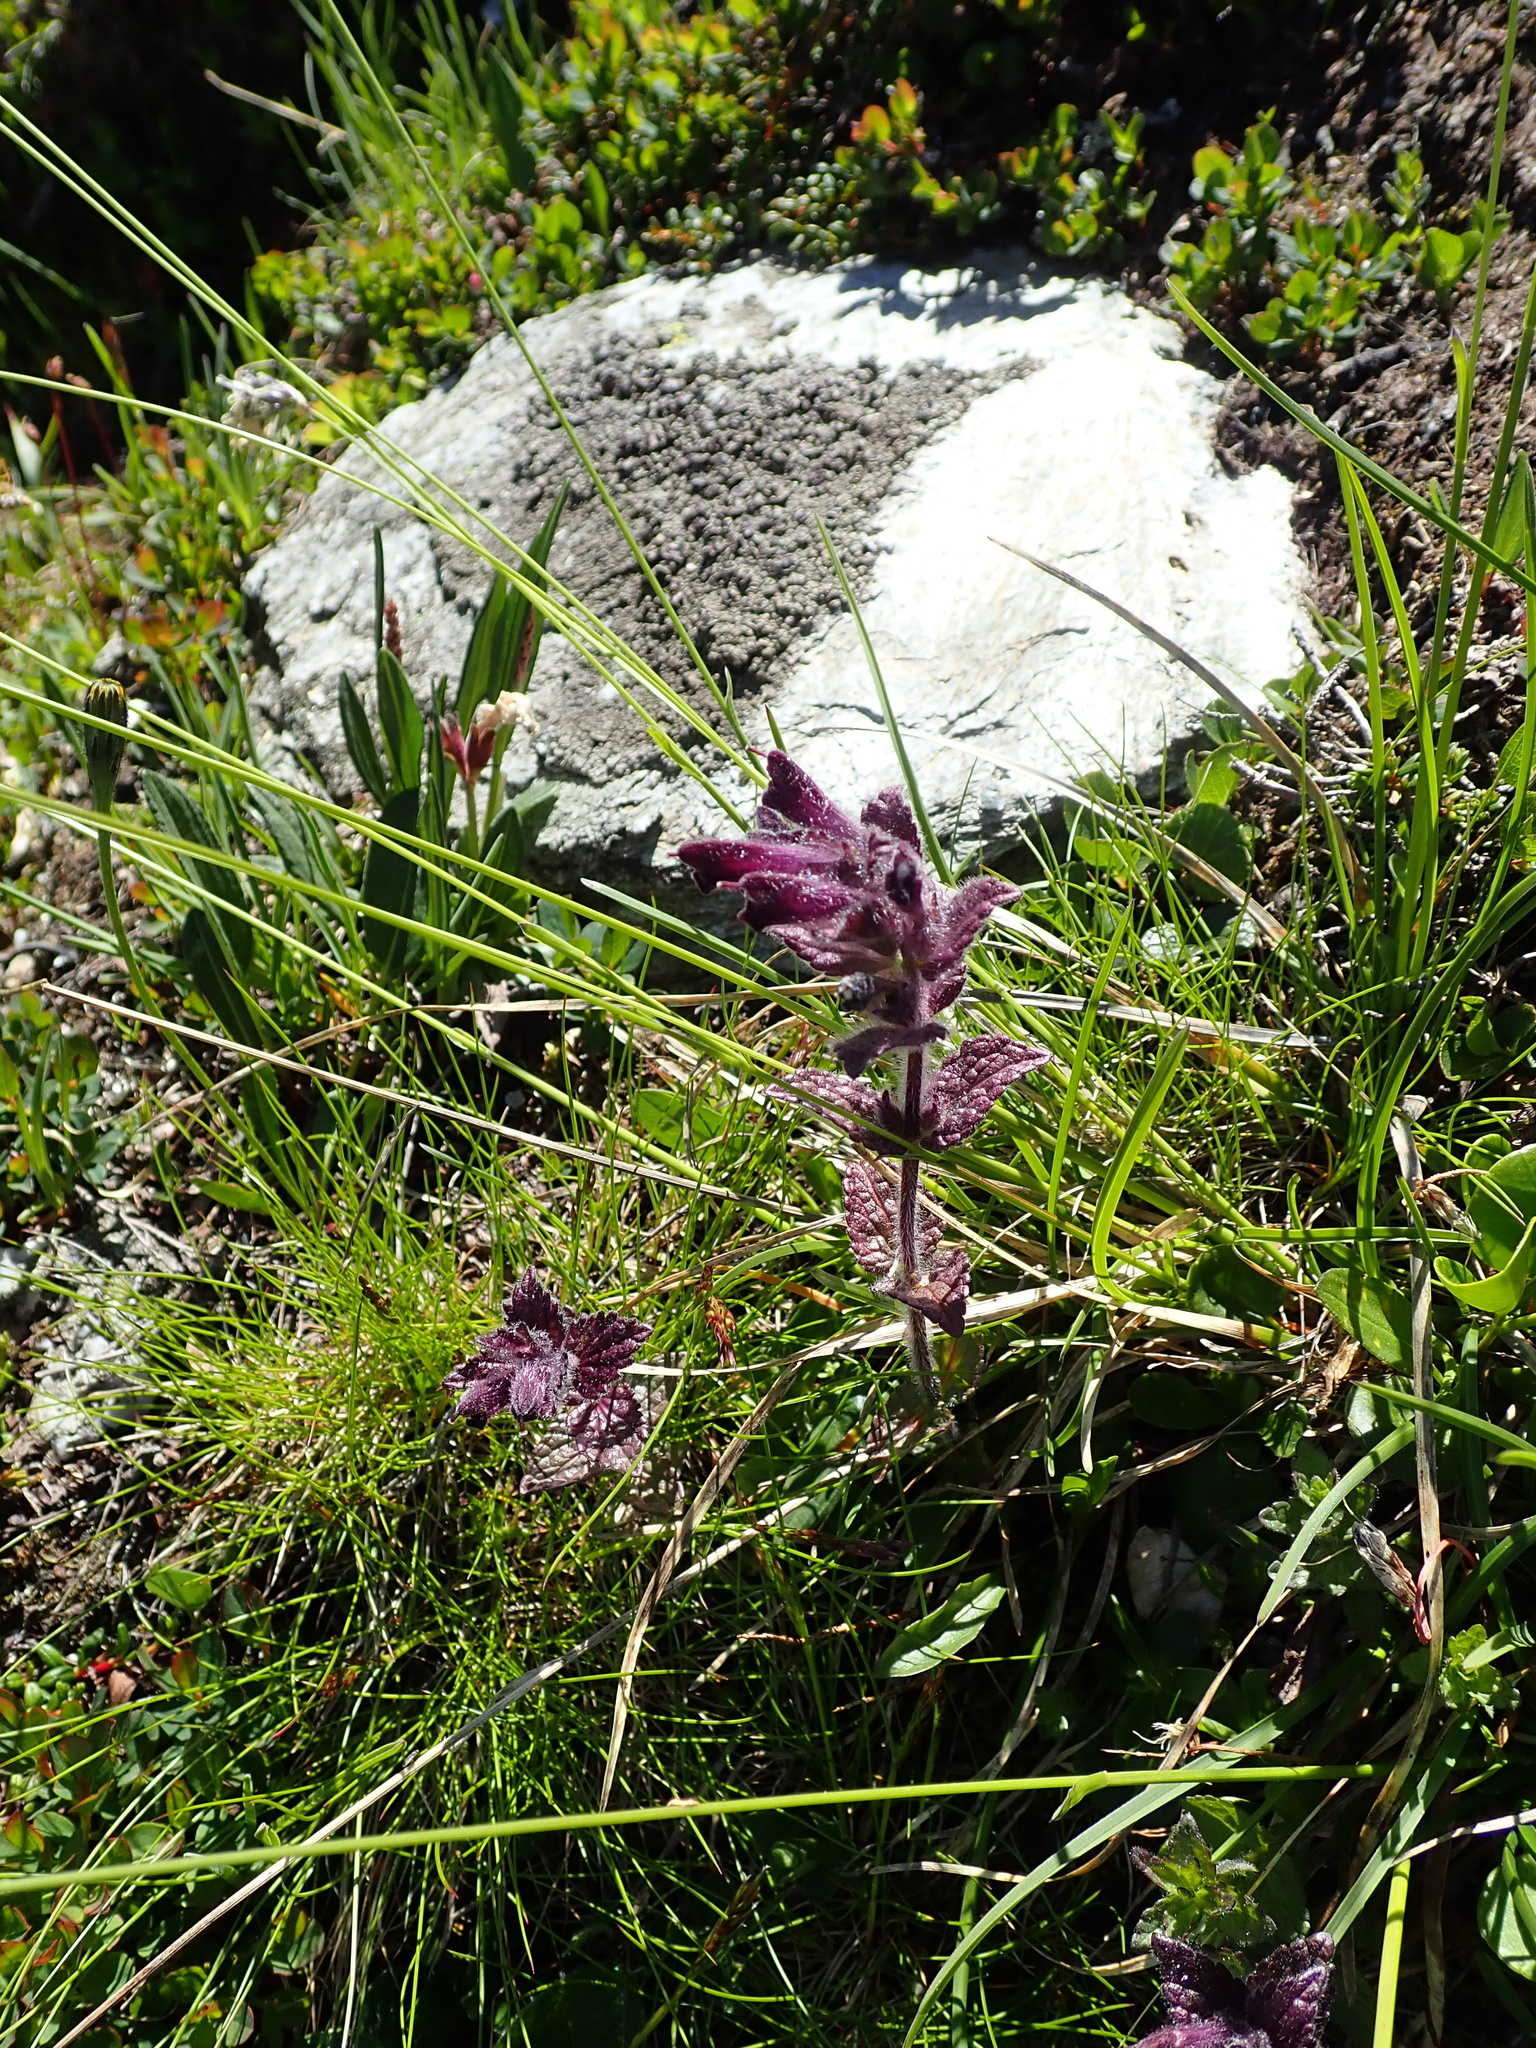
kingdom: Plantae
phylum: Tracheophyta
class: Magnoliopsida
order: Lamiales
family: Orobanchaceae
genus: Bartsia
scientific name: Bartsia alpina
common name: Alpine bartsia
